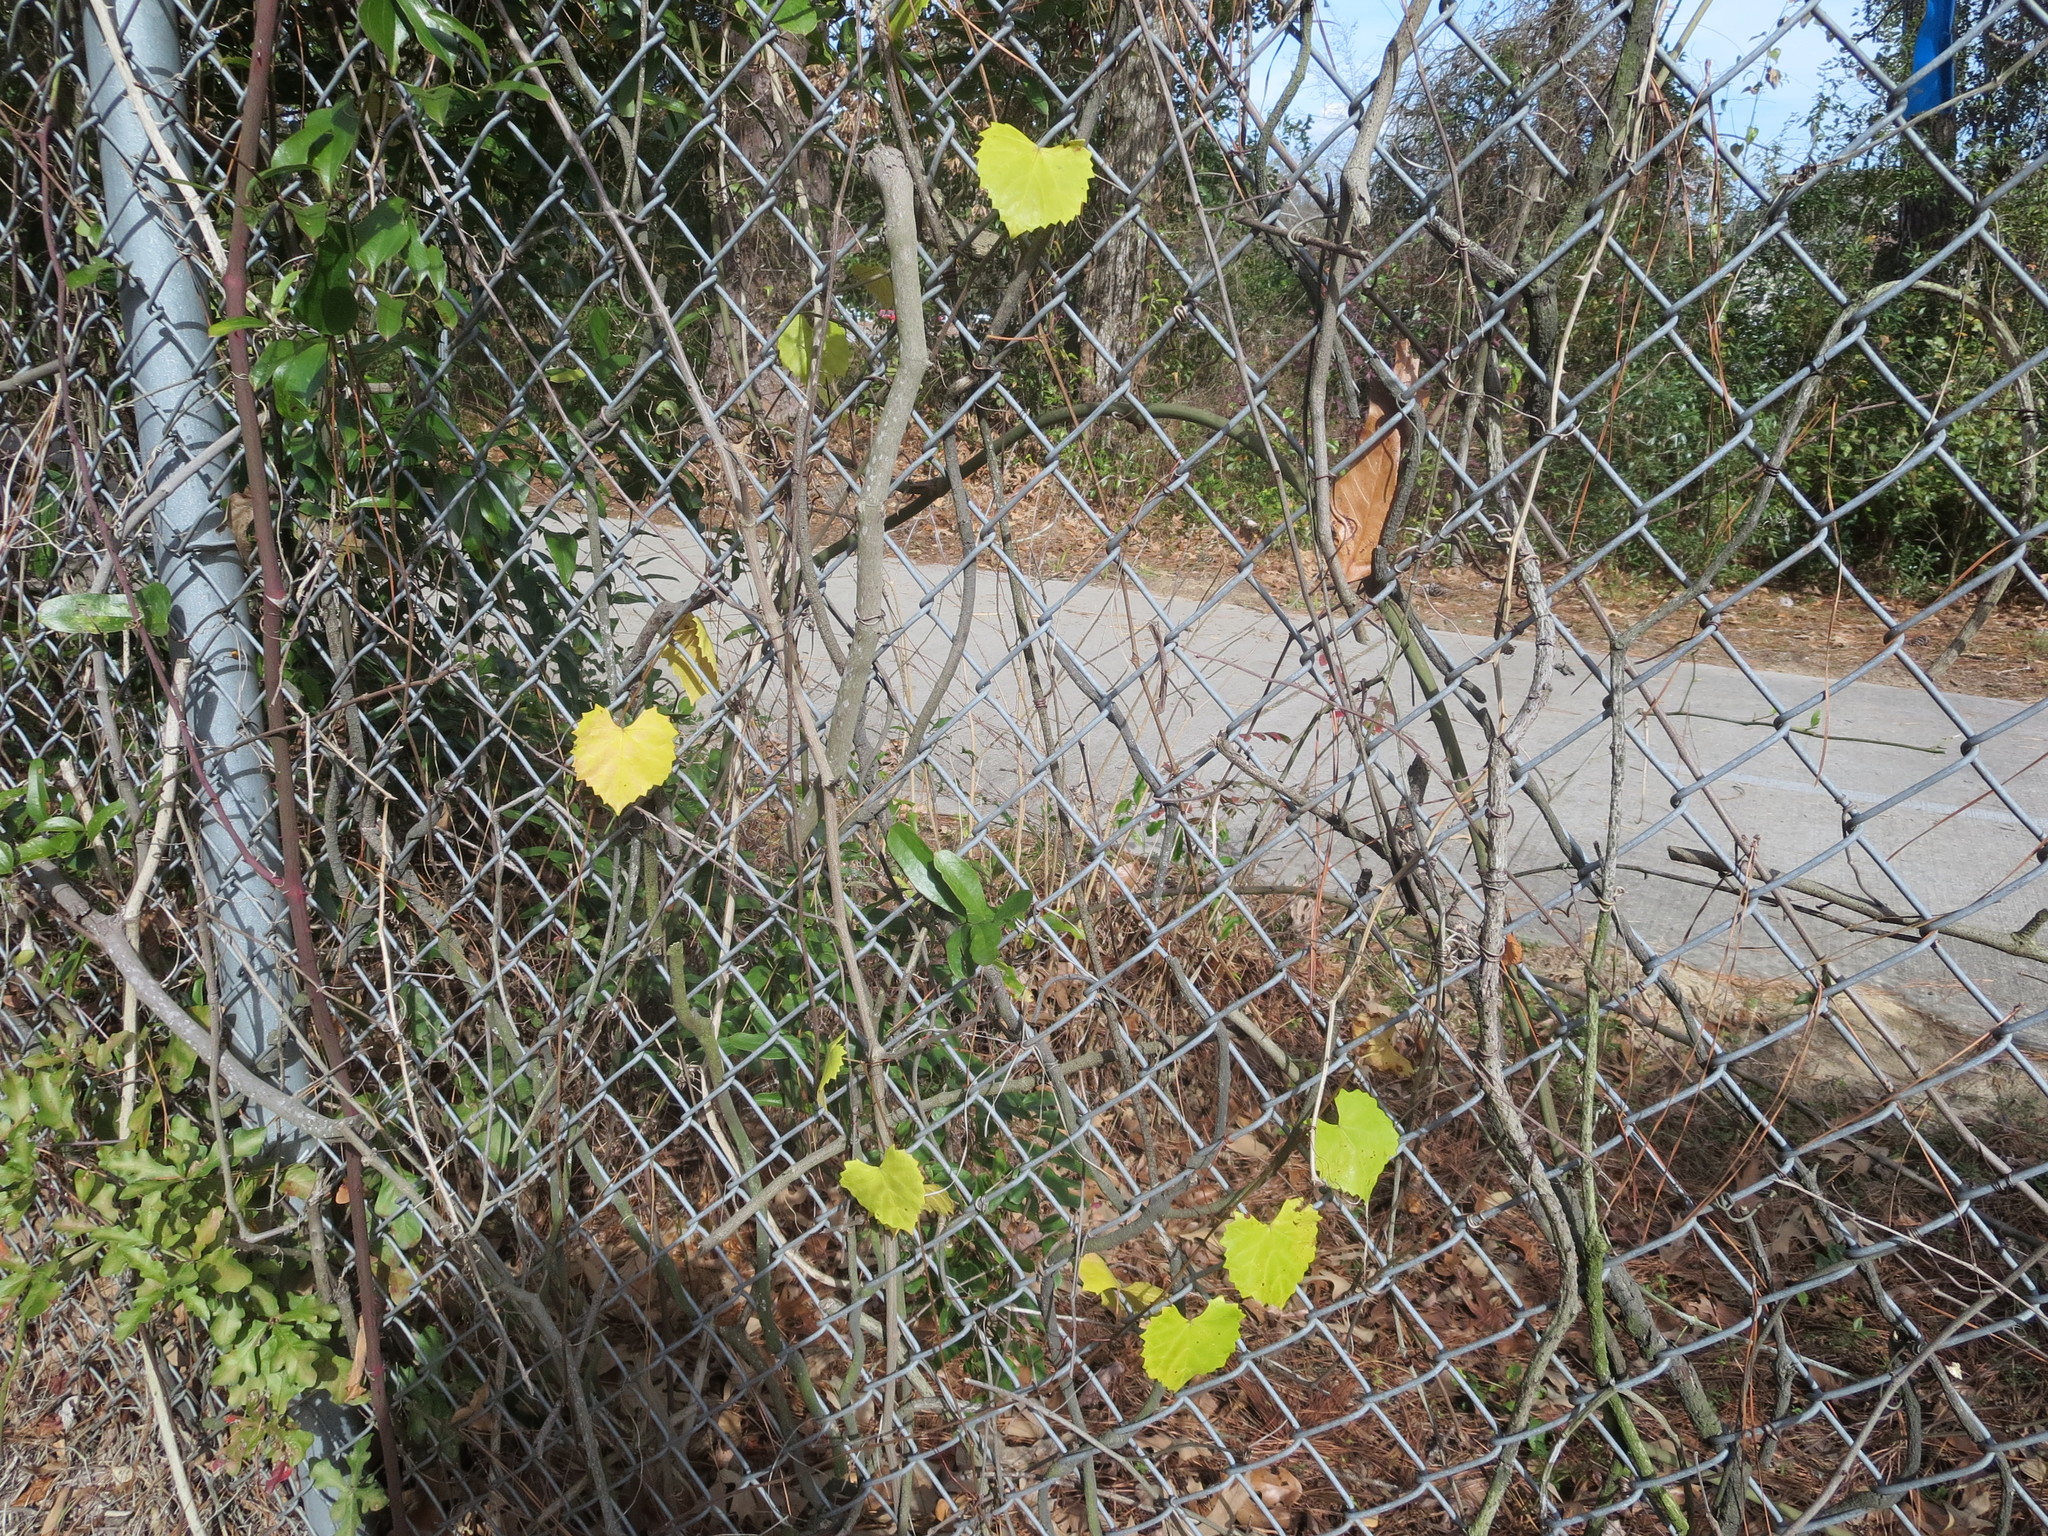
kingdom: Plantae
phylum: Tracheophyta
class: Magnoliopsida
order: Vitales
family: Vitaceae
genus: Vitis
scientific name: Vitis rotundifolia
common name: Muscadine grape
